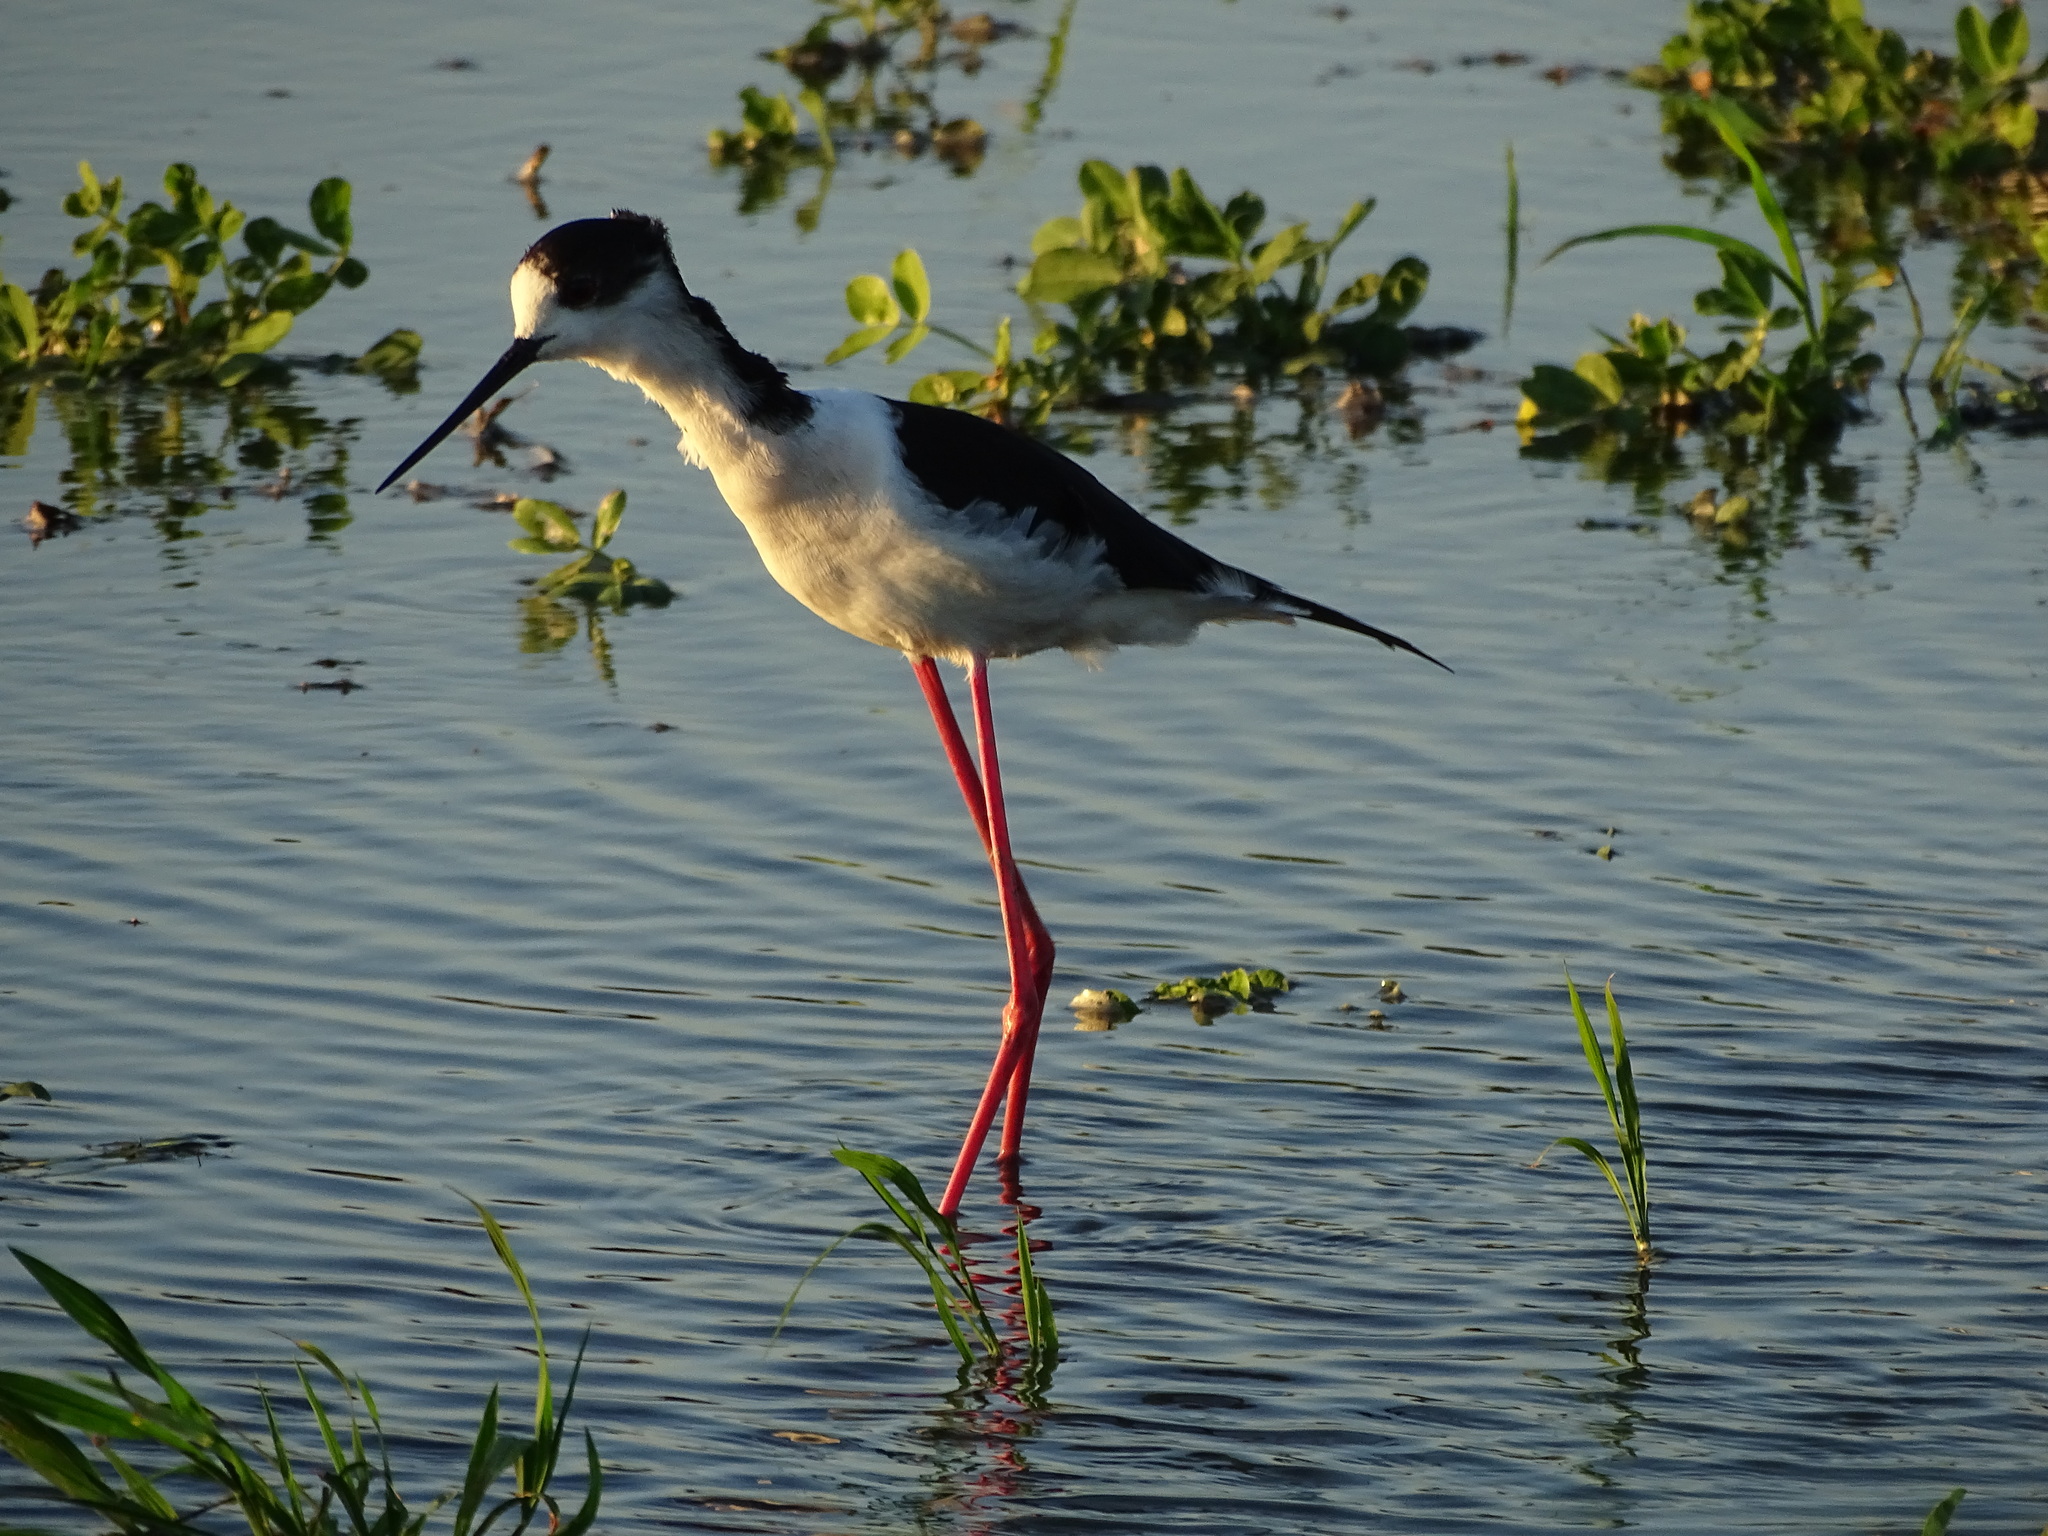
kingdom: Animalia
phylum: Chordata
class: Aves
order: Charadriiformes
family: Recurvirostridae
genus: Himantopus
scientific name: Himantopus himantopus
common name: Black-winged stilt
